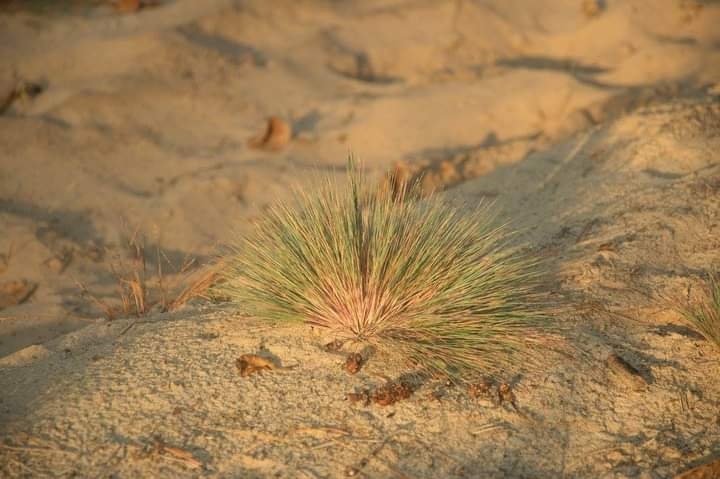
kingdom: Plantae
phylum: Tracheophyta
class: Liliopsida
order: Poales
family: Poaceae
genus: Corynephorus
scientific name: Corynephorus canescens
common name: Grey hair-grass
